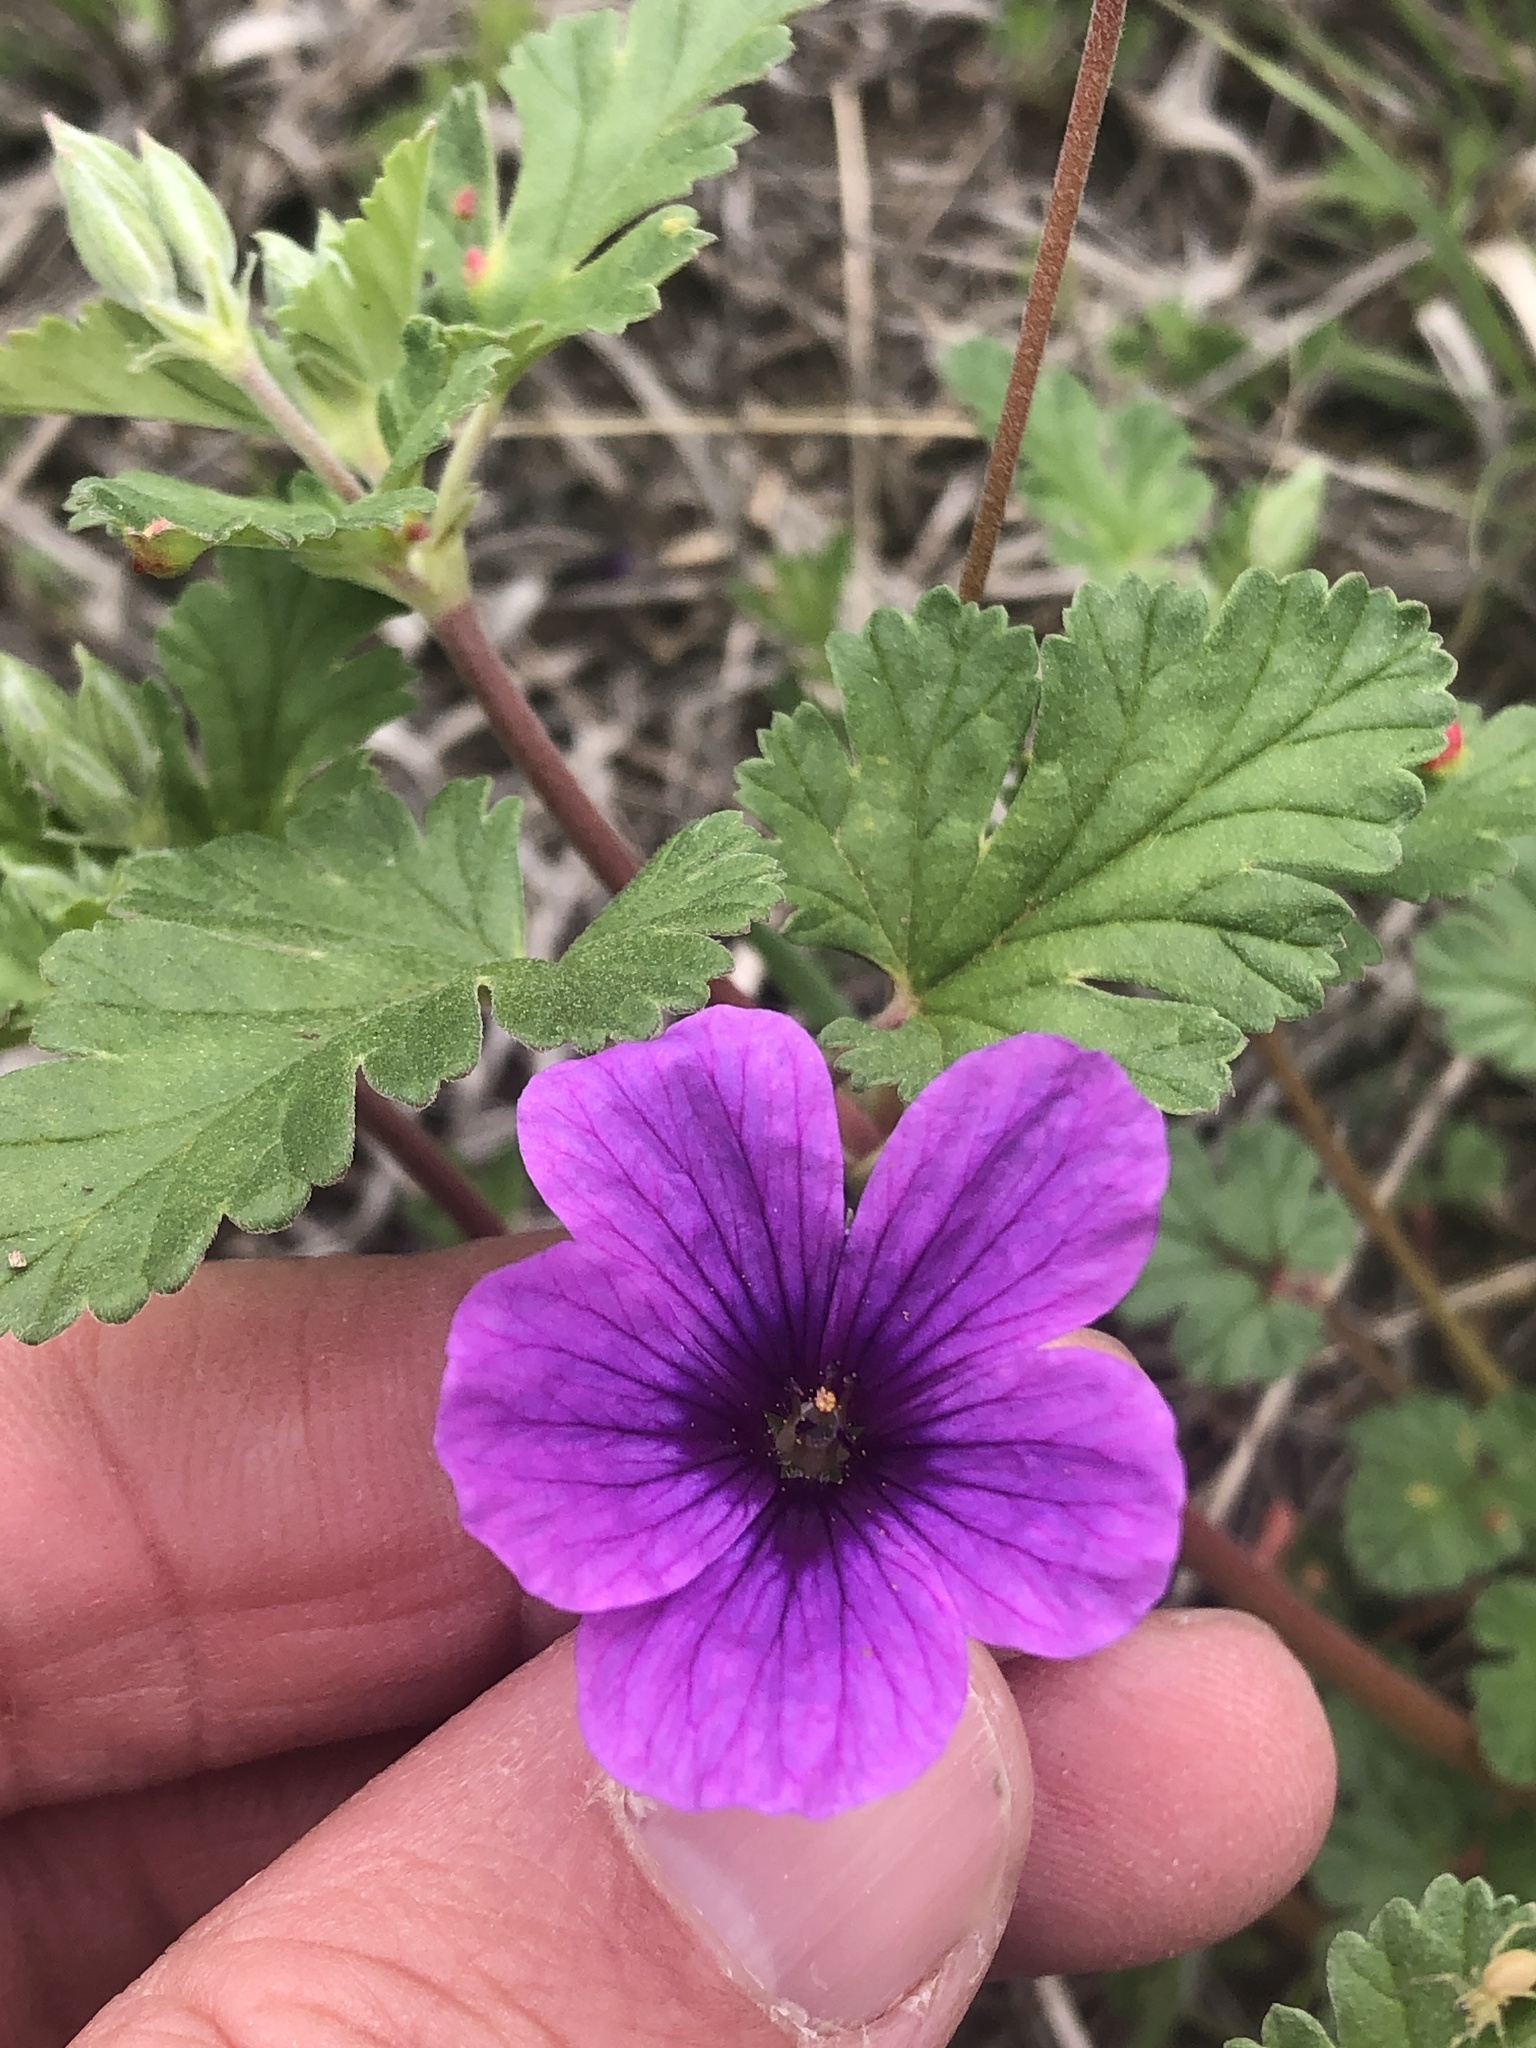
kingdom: Plantae
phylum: Tracheophyta
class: Magnoliopsida
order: Geraniales
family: Geraniaceae
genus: Erodium
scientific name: Erodium texanum
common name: Texas stork's-bill
